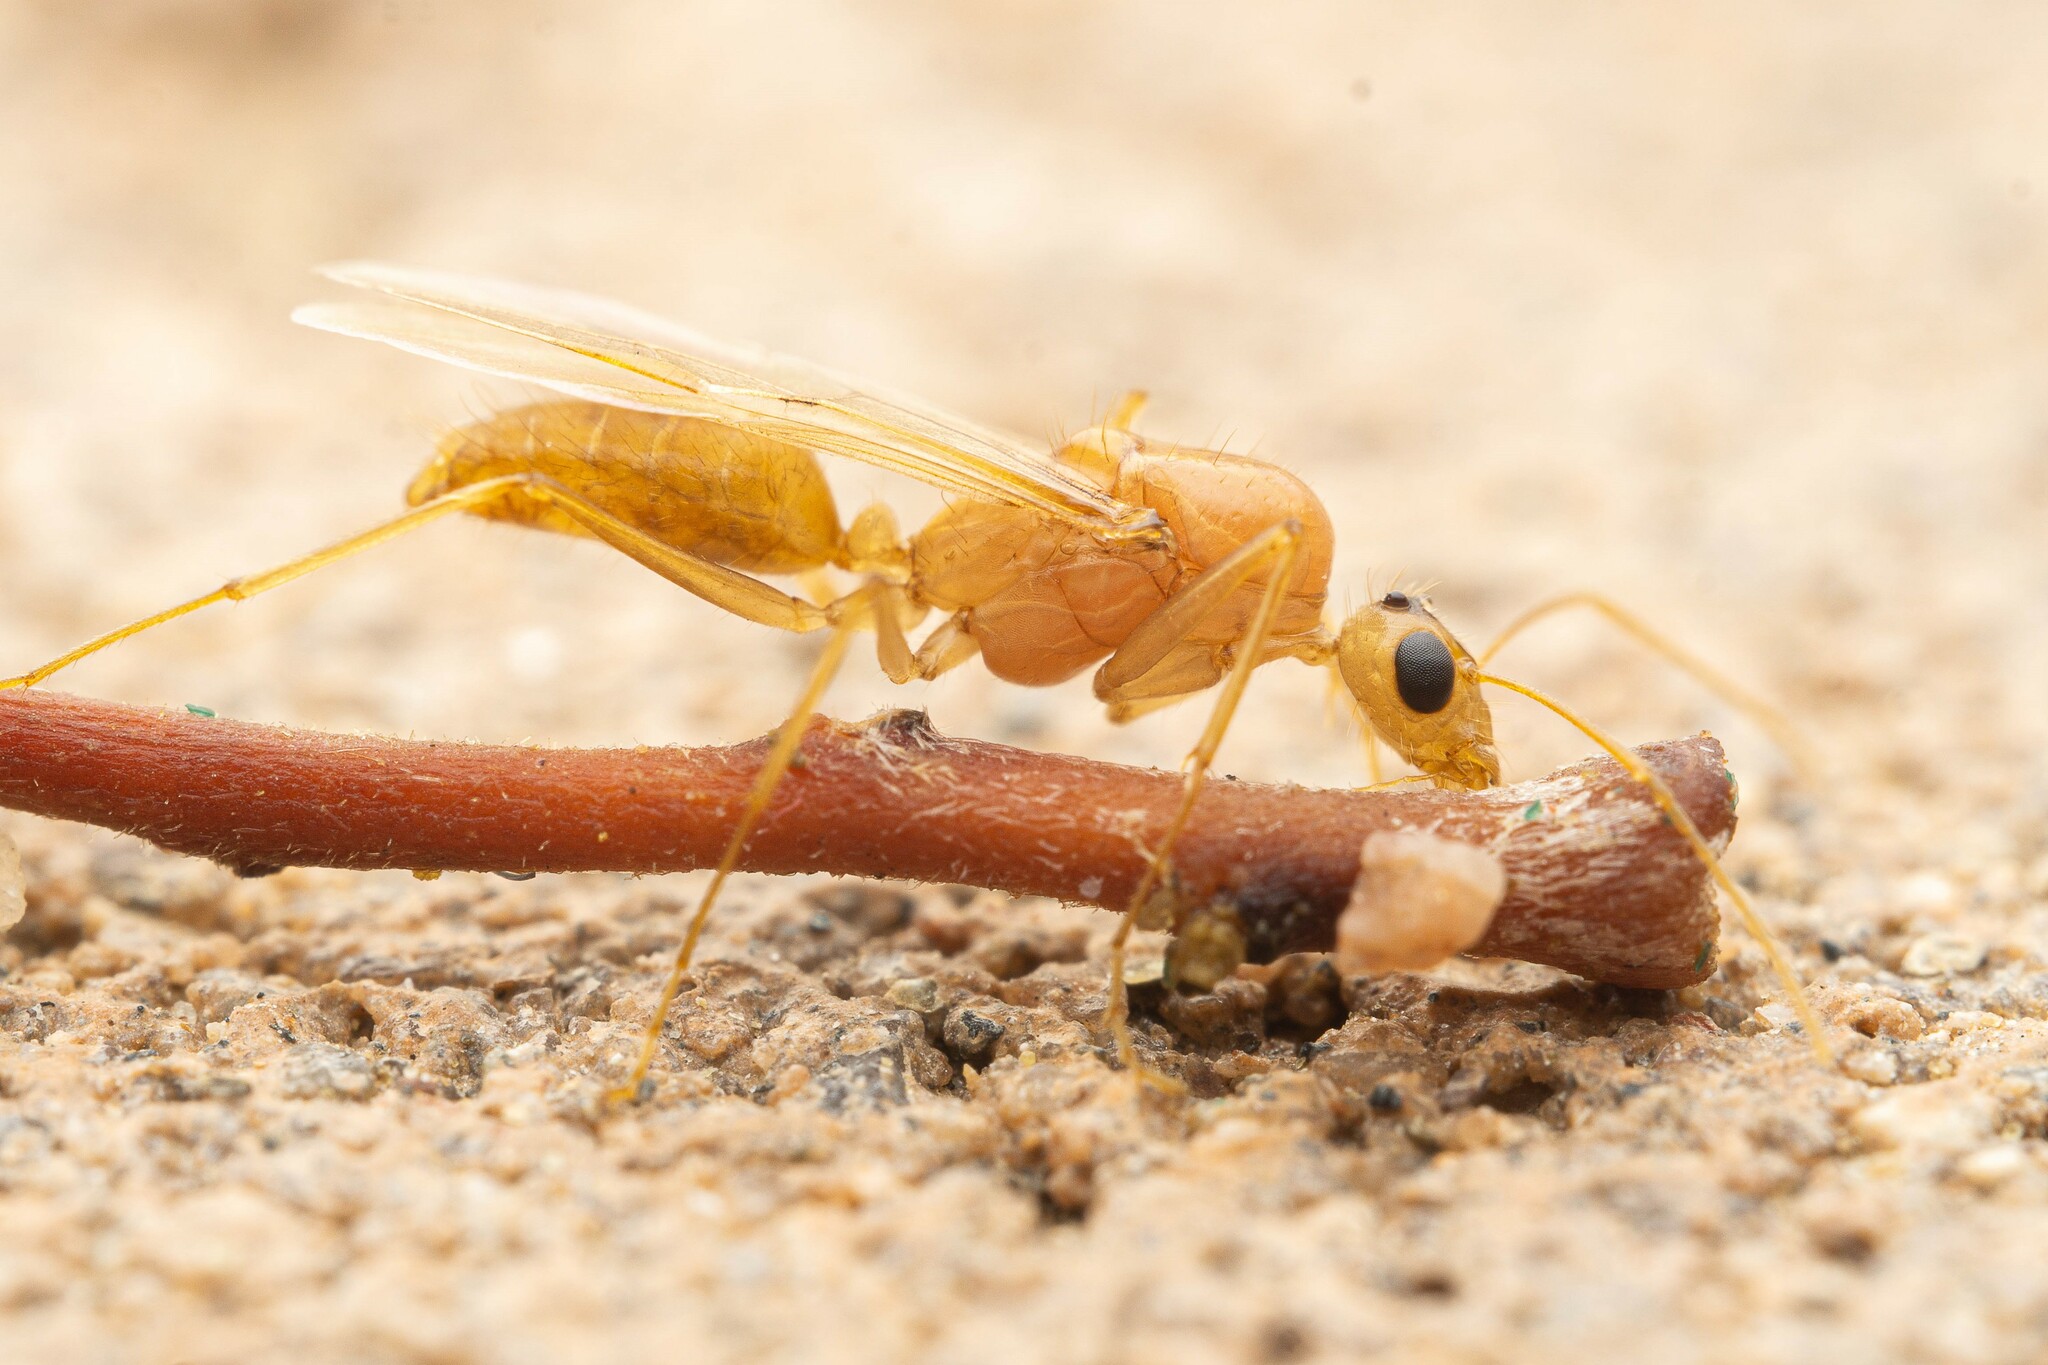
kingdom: Animalia
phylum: Arthropoda
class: Insecta
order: Hymenoptera
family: Formicidae
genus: Camponotus
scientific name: Camponotus fragilis
